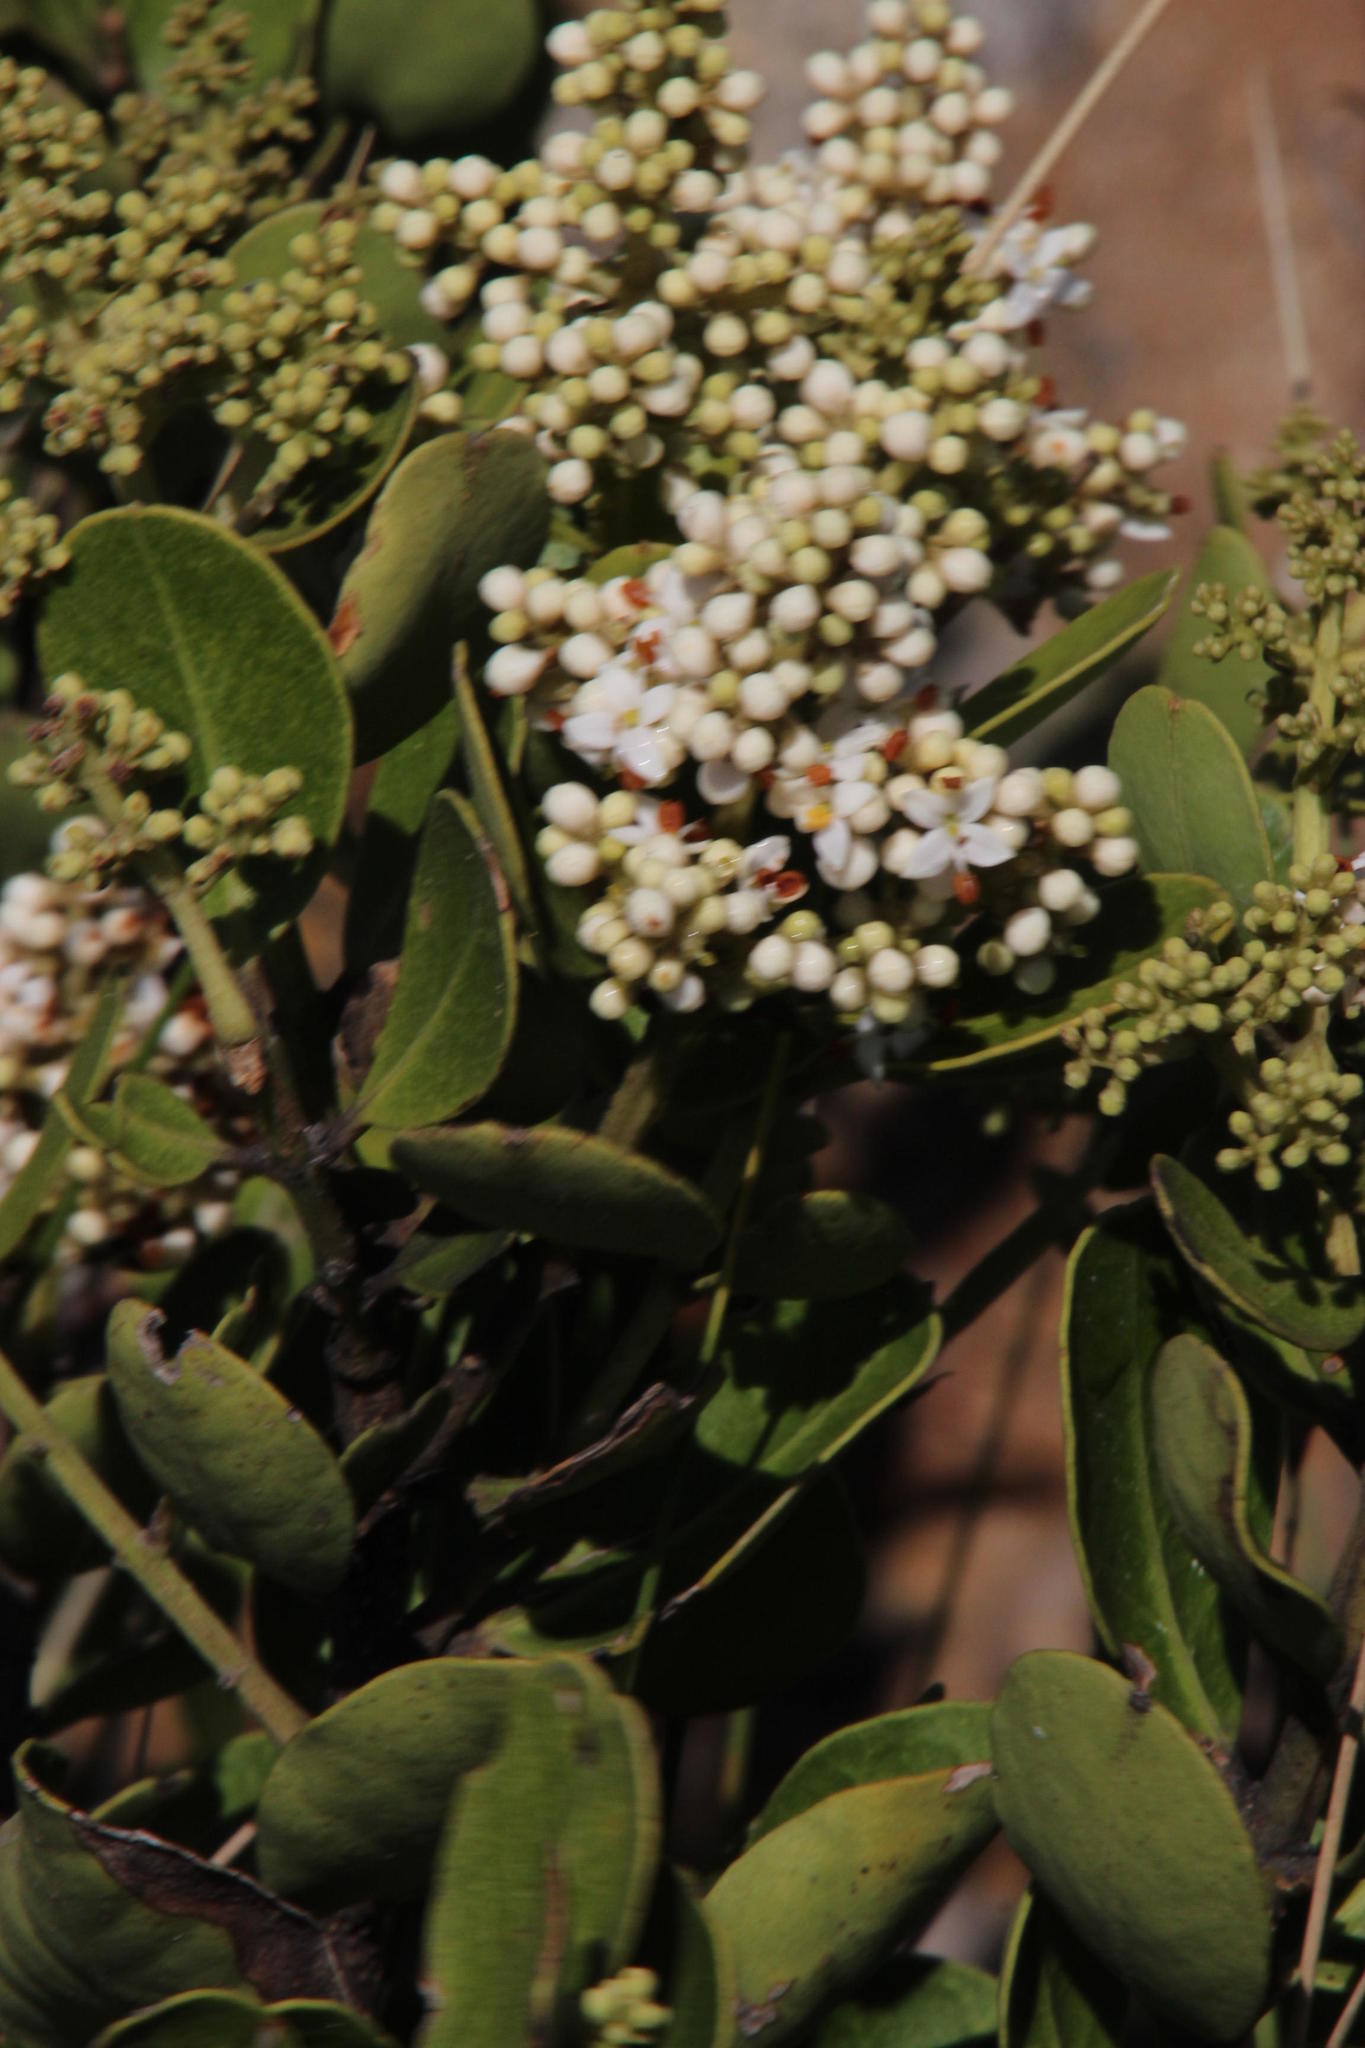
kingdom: Plantae
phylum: Tracheophyta
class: Magnoliopsida
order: Lamiales
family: Oleaceae
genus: Olea
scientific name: Olea capensis
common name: Black ironwood
